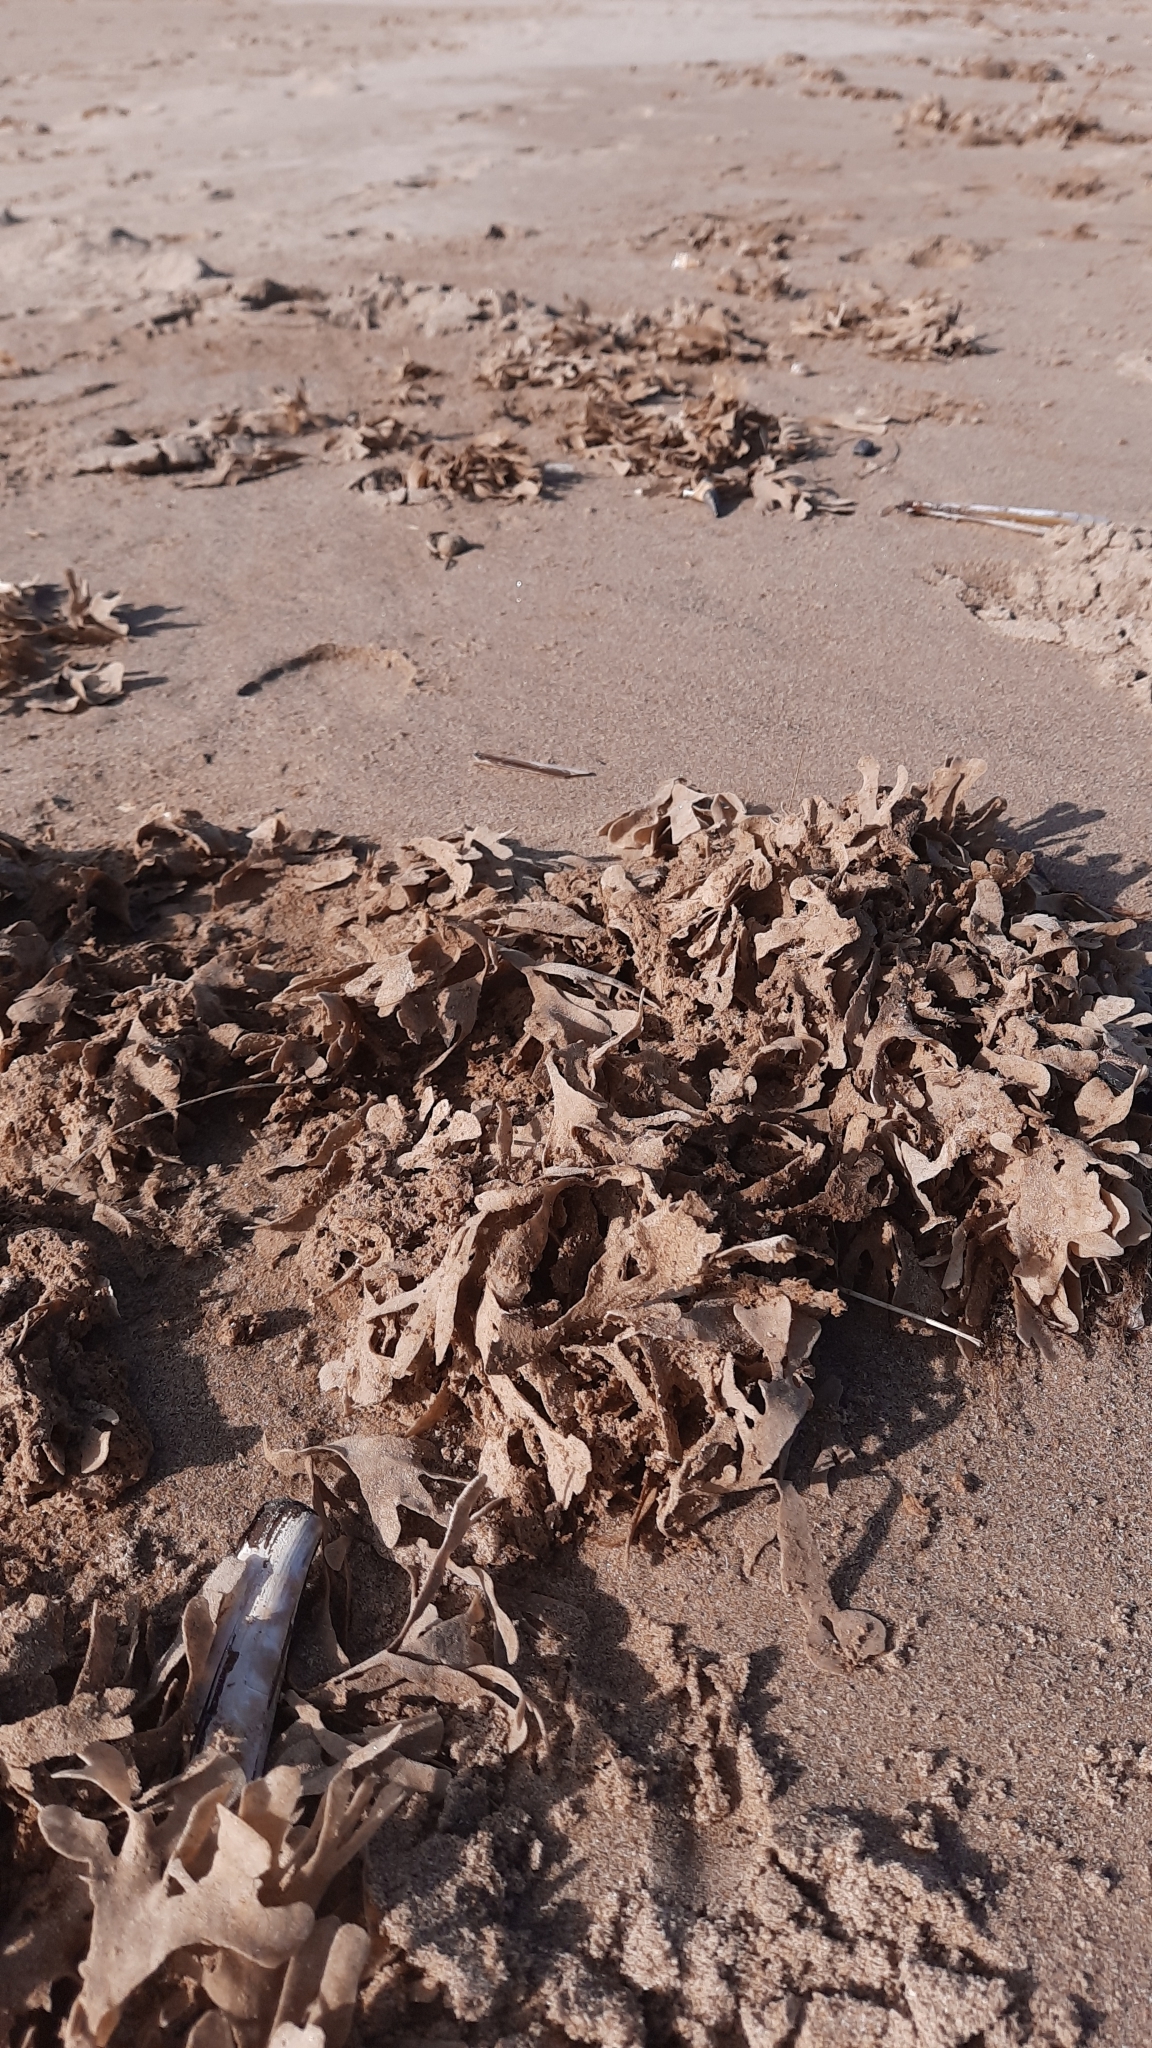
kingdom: Animalia
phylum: Bryozoa
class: Gymnolaemata
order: Cheilostomatida
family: Flustridae
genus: Flustra
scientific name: Flustra foliacea
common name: Hornwrack
